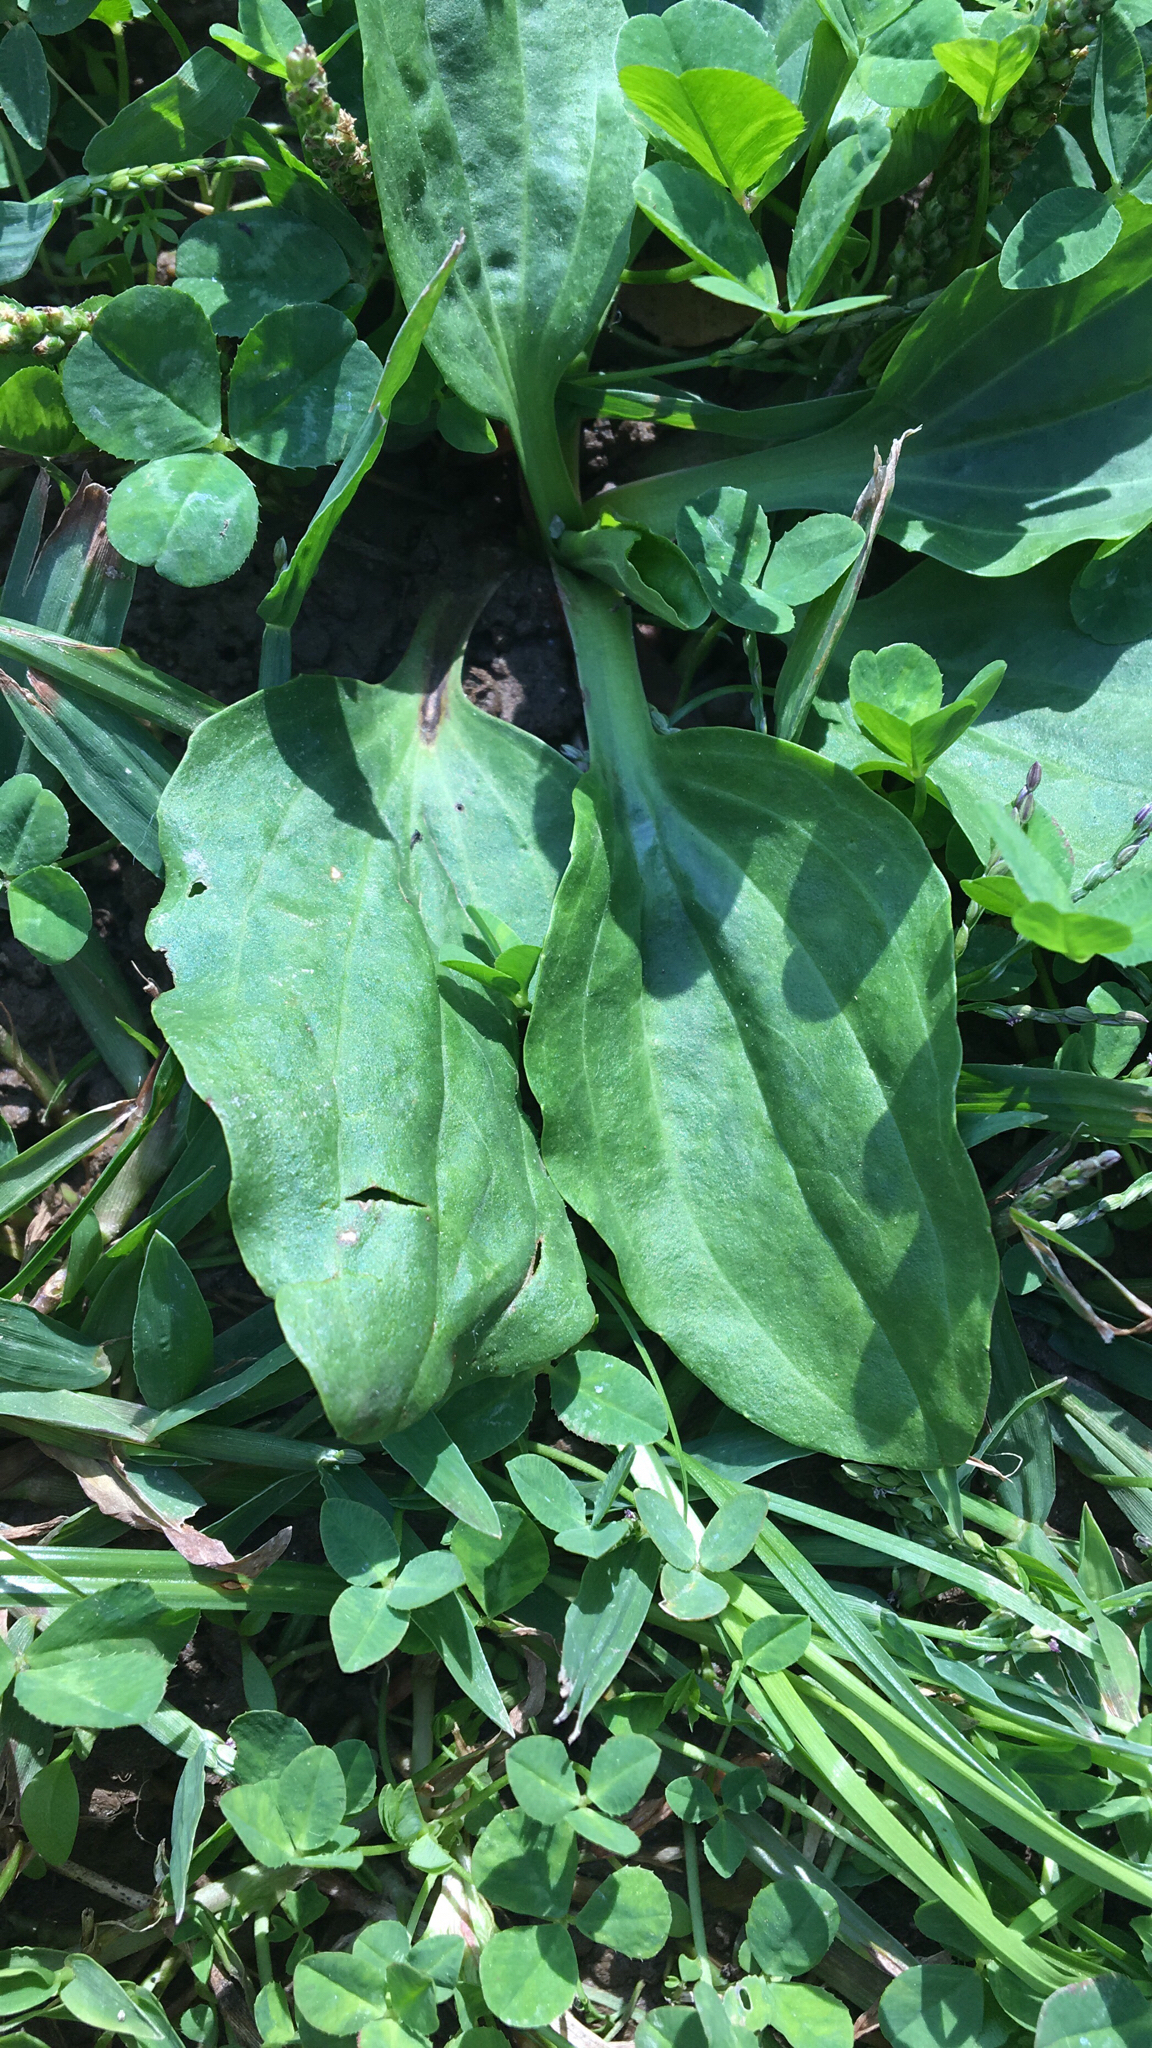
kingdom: Plantae
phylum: Tracheophyta
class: Magnoliopsida
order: Lamiales
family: Plantaginaceae
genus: Plantago
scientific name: Plantago major
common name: Common plantain
